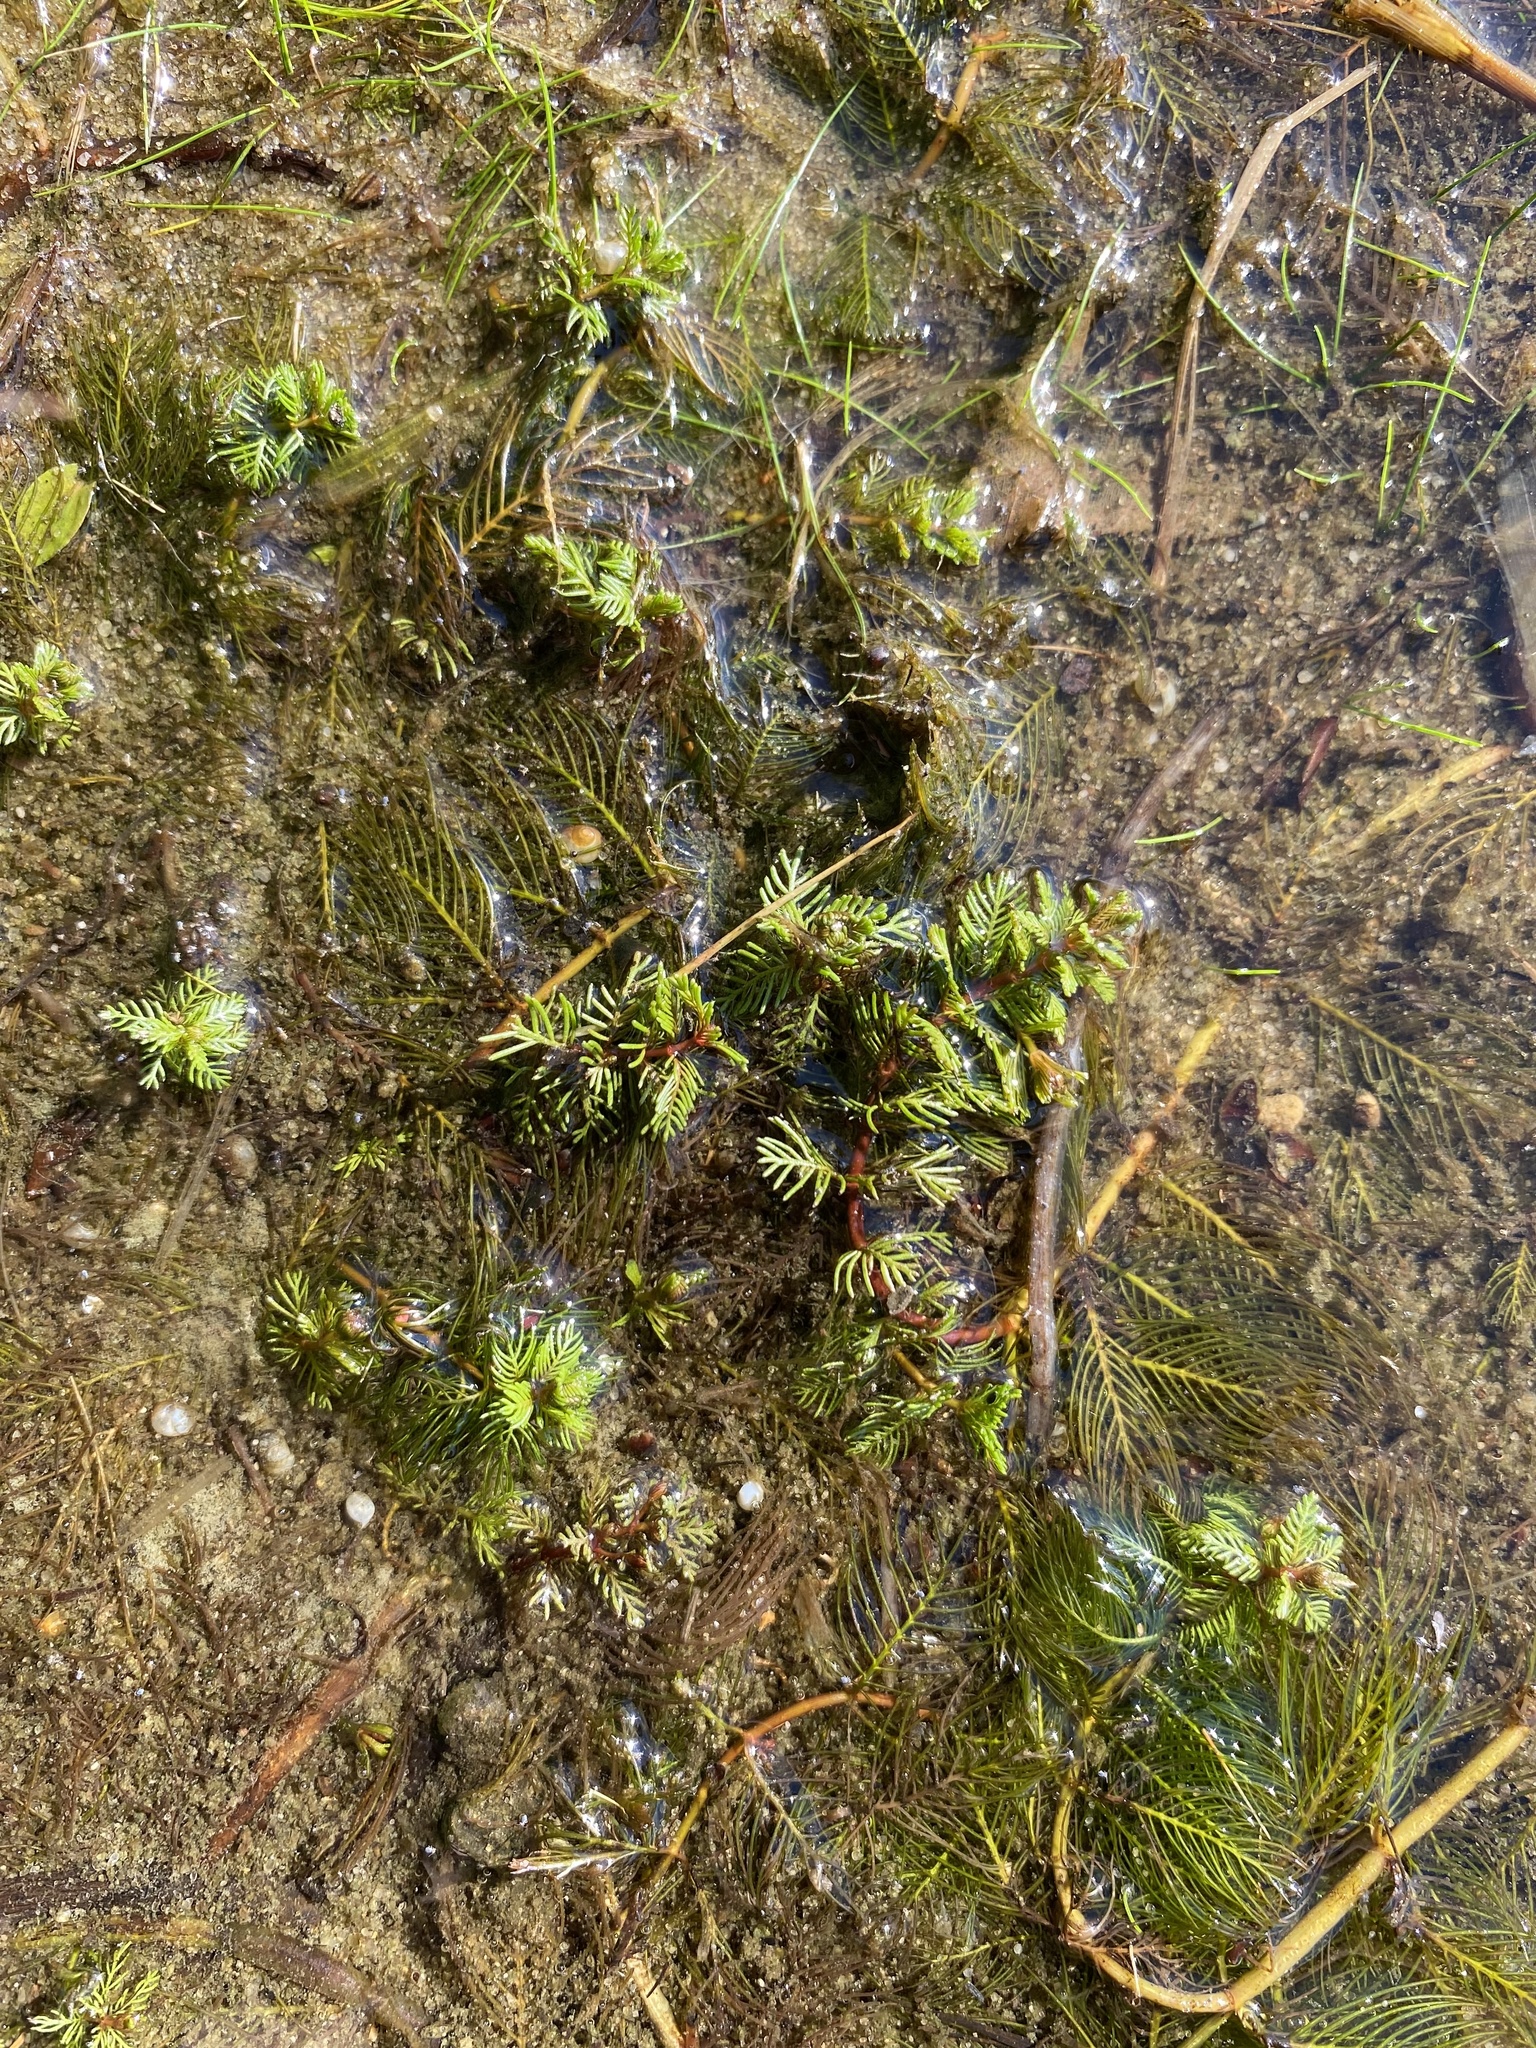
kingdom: Plantae
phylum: Tracheophyta
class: Magnoliopsida
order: Saxifragales
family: Haloragaceae
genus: Myriophyllum
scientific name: Myriophyllum verticillatum
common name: Whorled water-milfoil
